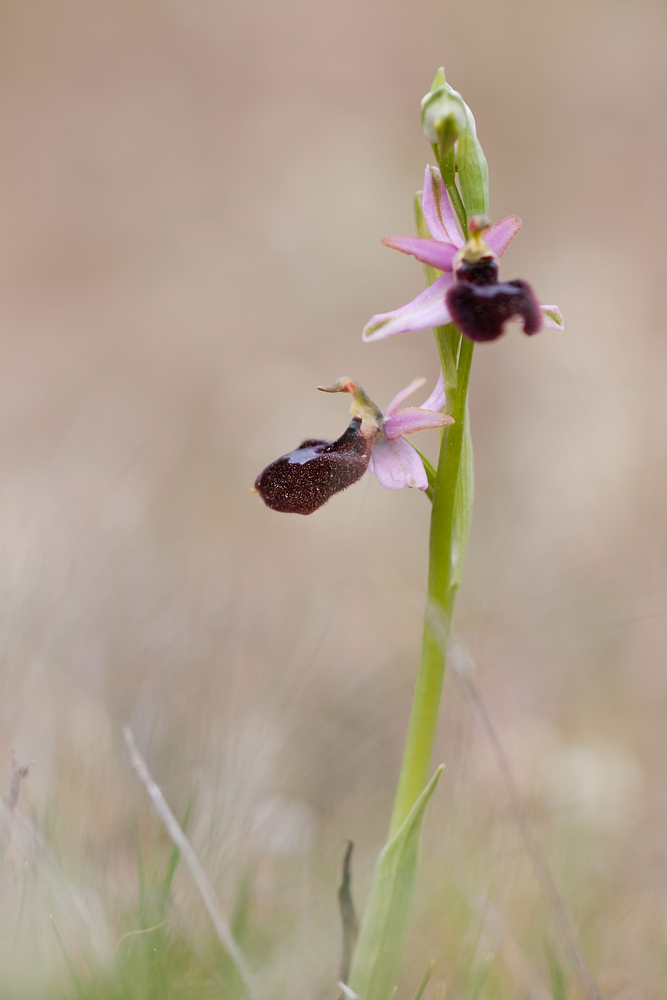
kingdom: Plantae
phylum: Tracheophyta
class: Liliopsida
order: Asparagales
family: Orchidaceae
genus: Ophrys
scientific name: Ophrys flavicans
